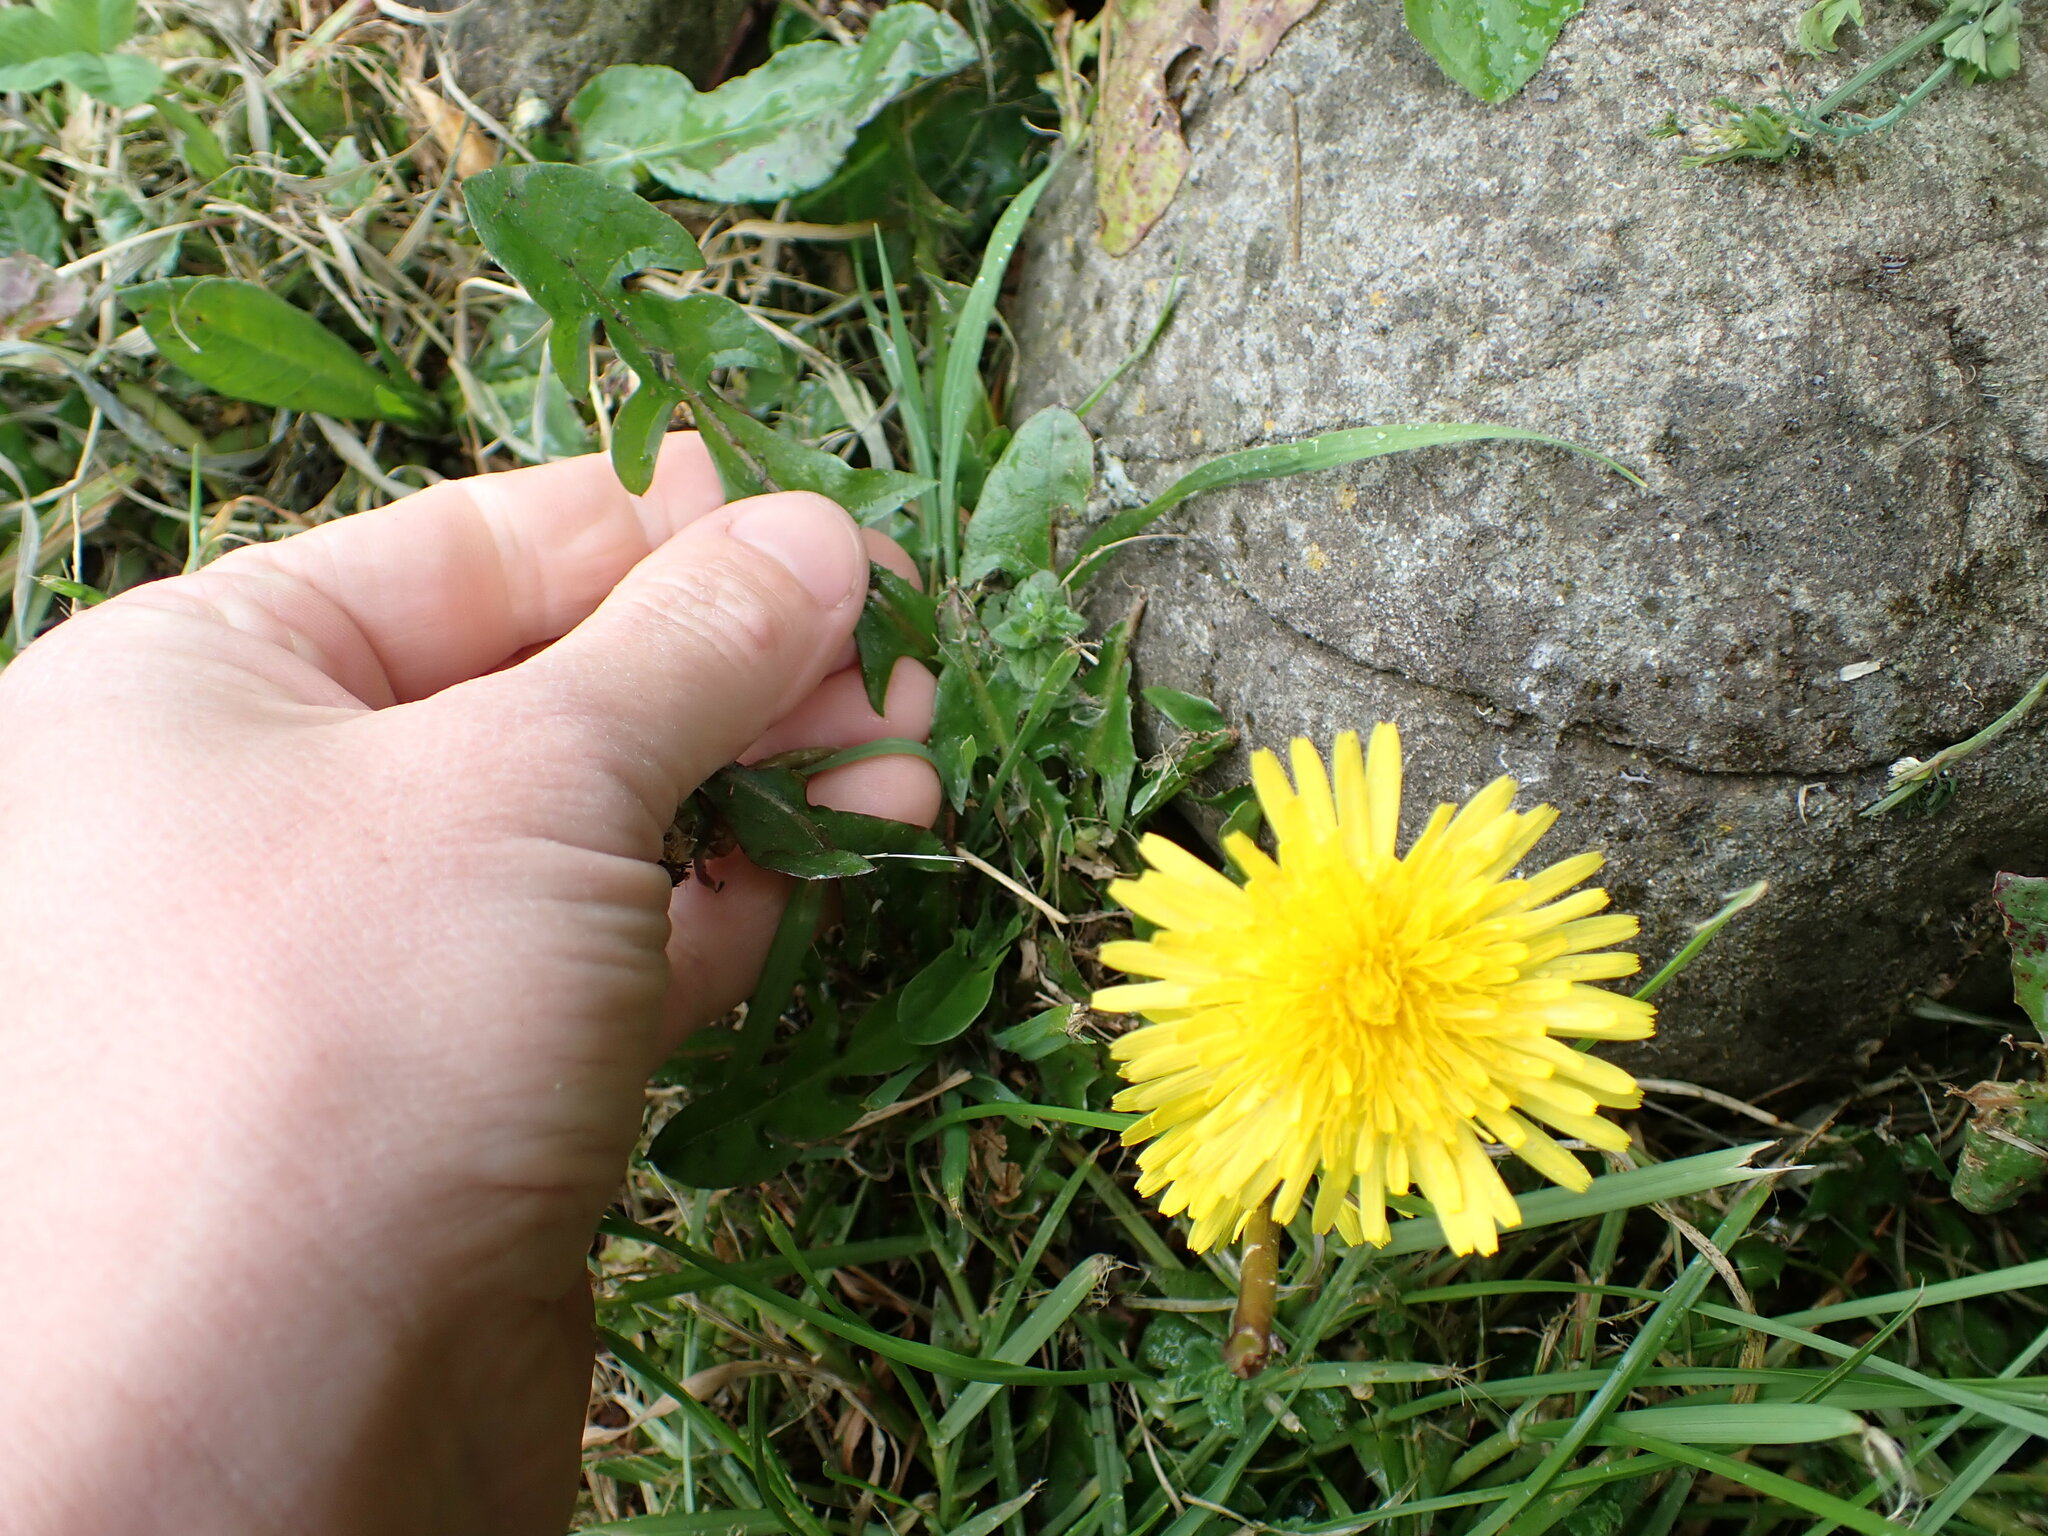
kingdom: Plantae
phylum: Tracheophyta
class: Magnoliopsida
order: Asterales
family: Asteraceae
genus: Taraxacum
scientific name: Taraxacum officinale
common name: Common dandelion
